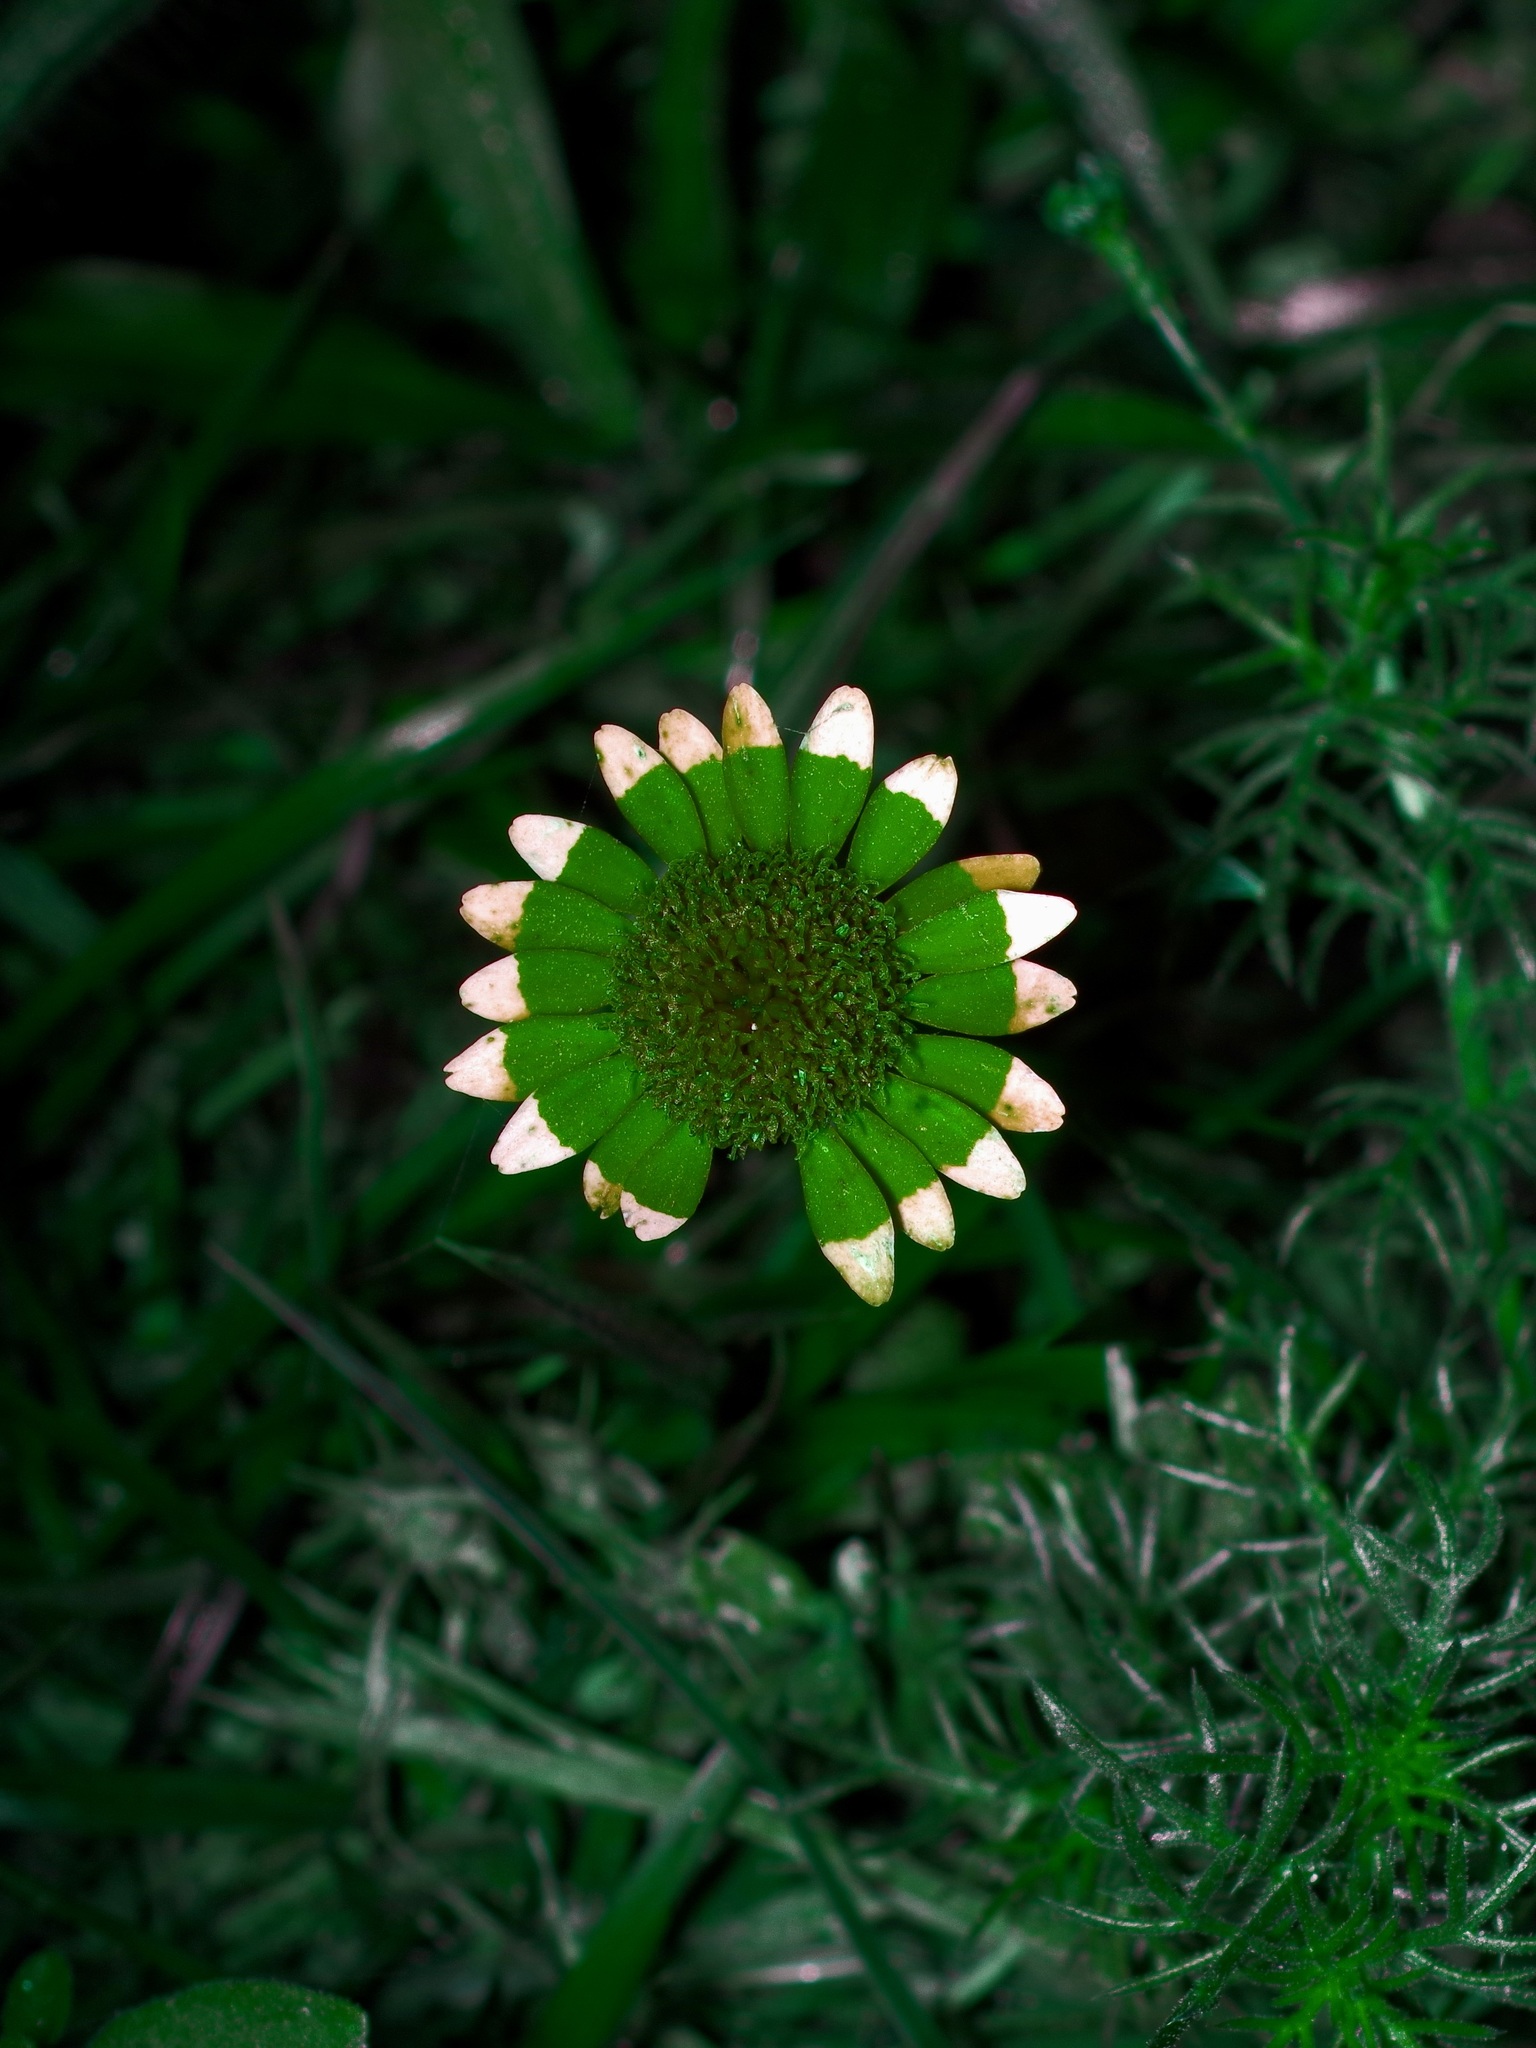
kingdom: Plantae
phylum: Tracheophyta
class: Magnoliopsida
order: Asterales
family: Asteraceae
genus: Thymophylla
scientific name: Thymophylla tenuiloba
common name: Dahlberg's daisy
